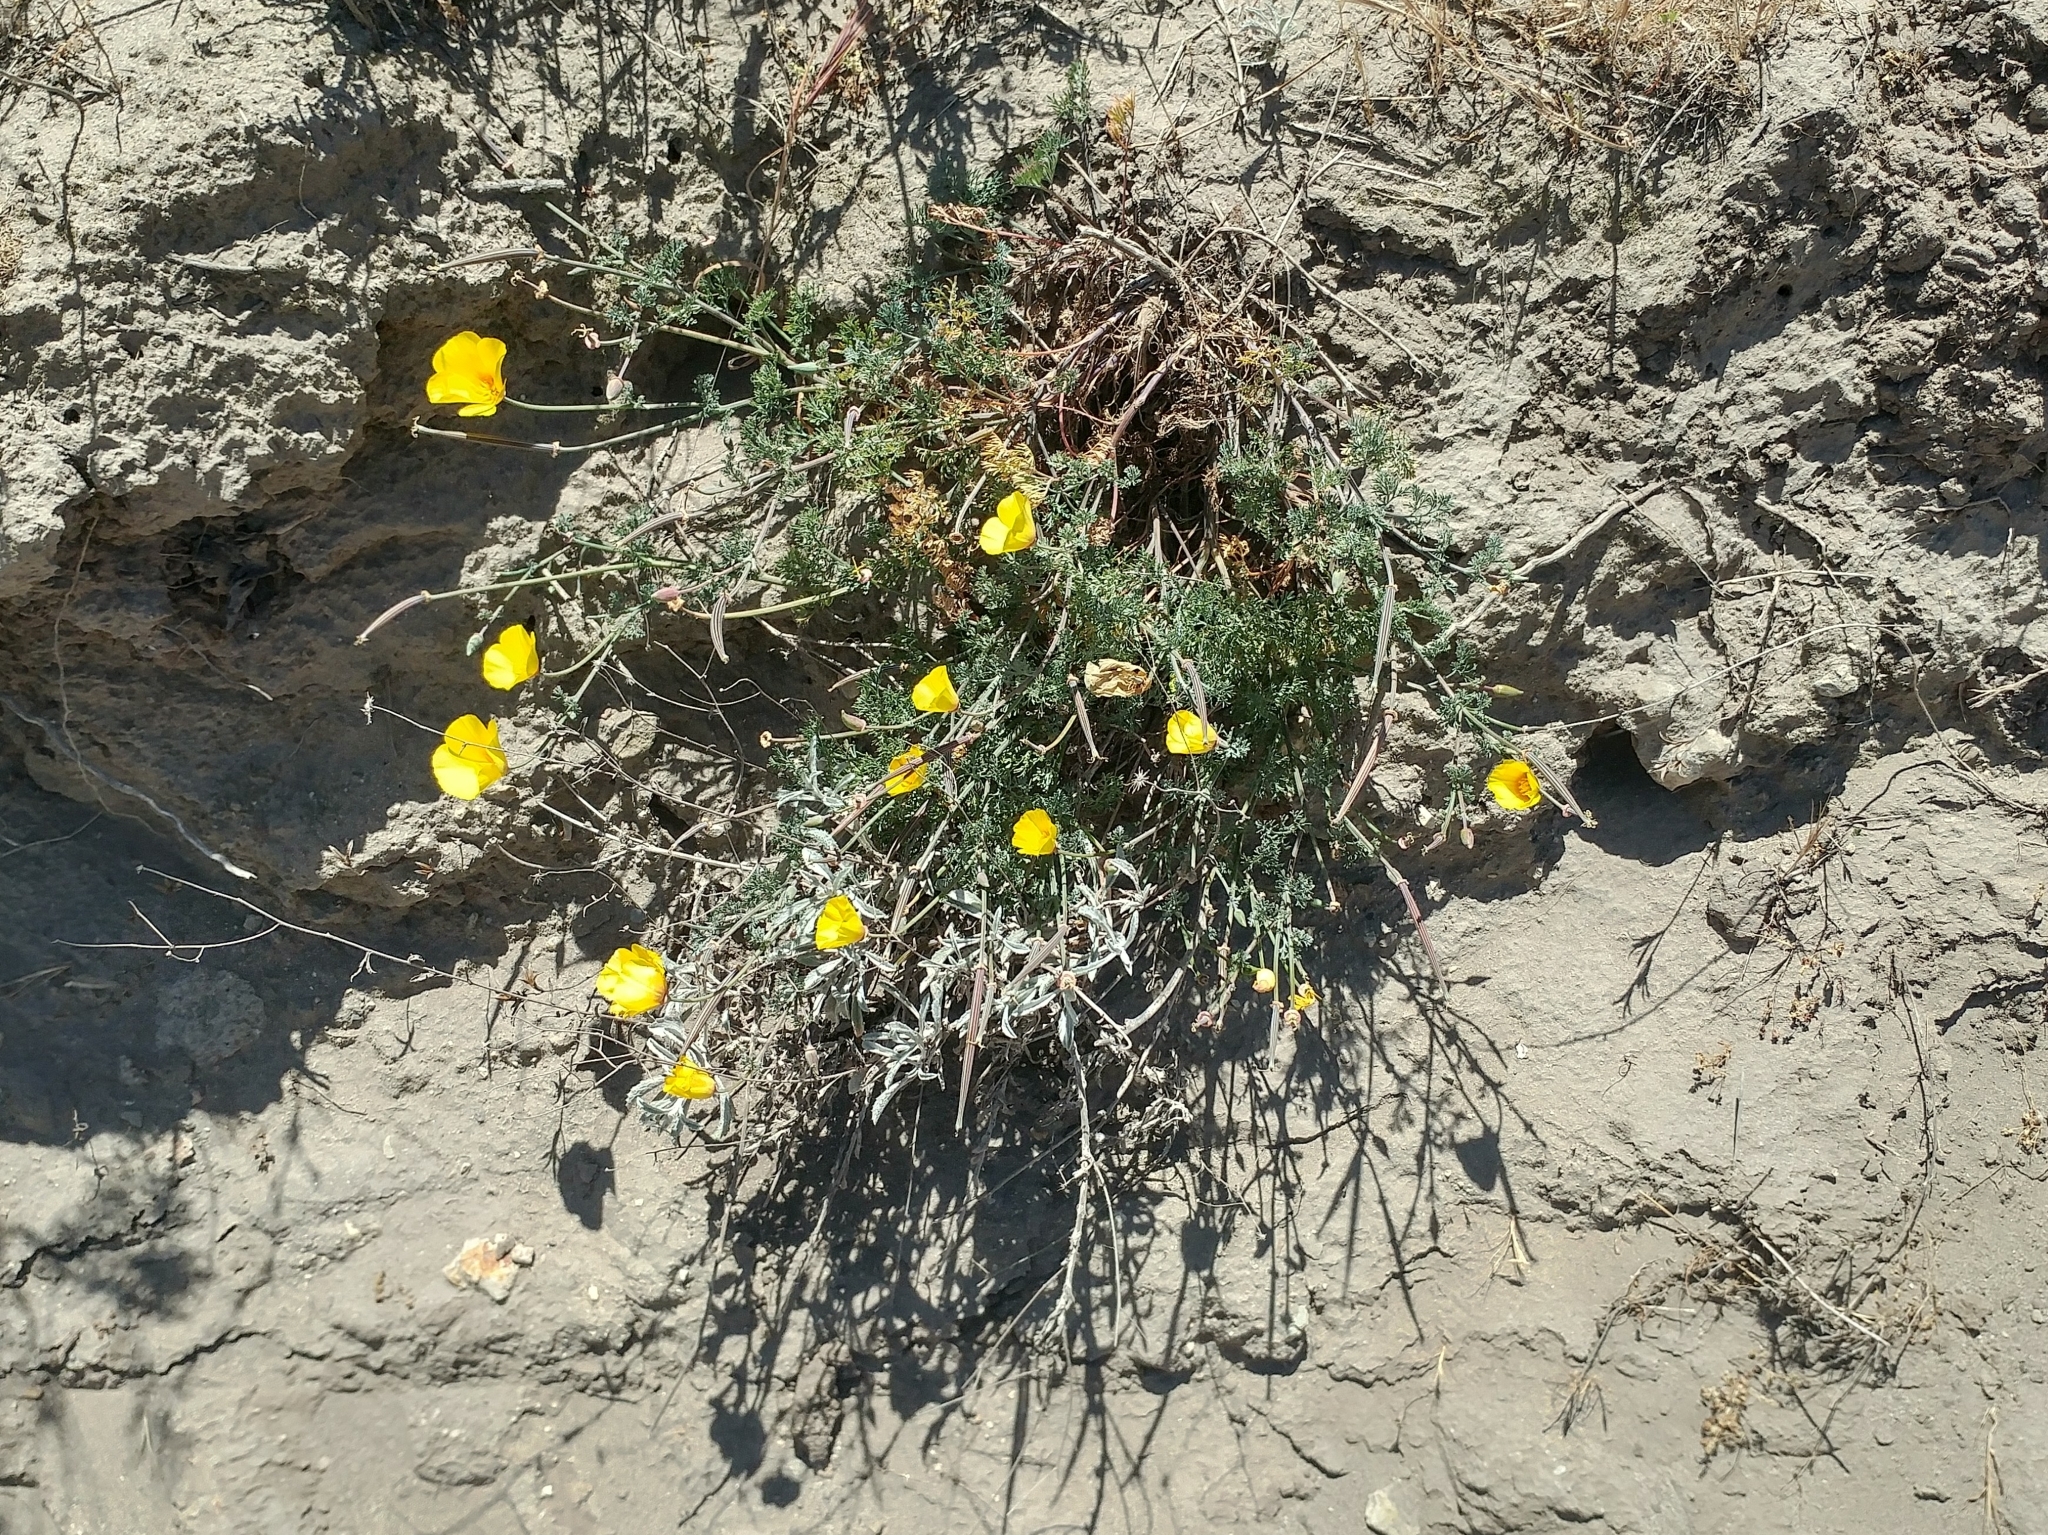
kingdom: Plantae
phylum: Tracheophyta
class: Magnoliopsida
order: Ranunculales
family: Papaveraceae
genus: Eschscholzia
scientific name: Eschscholzia californica
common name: California poppy
